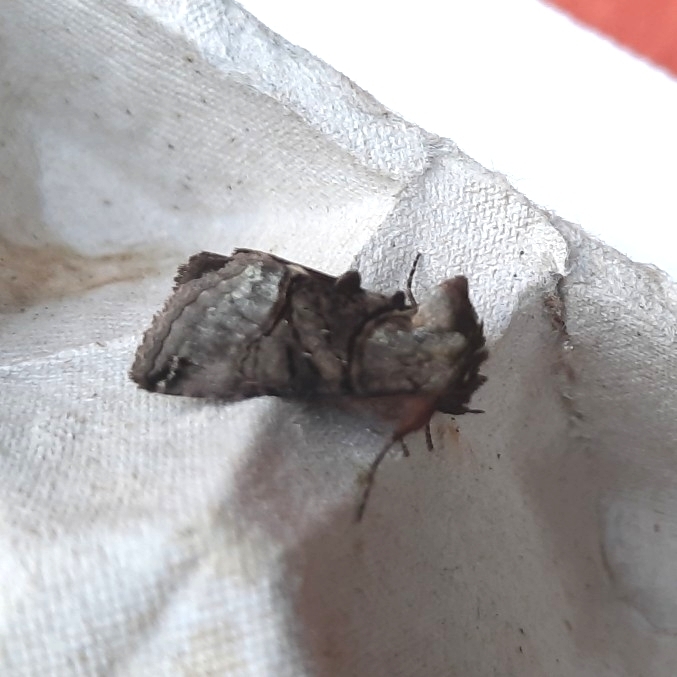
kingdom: Animalia
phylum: Arthropoda
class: Insecta
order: Lepidoptera
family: Noctuidae
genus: Abrostola
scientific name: Abrostola tripartita
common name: Spectacle
